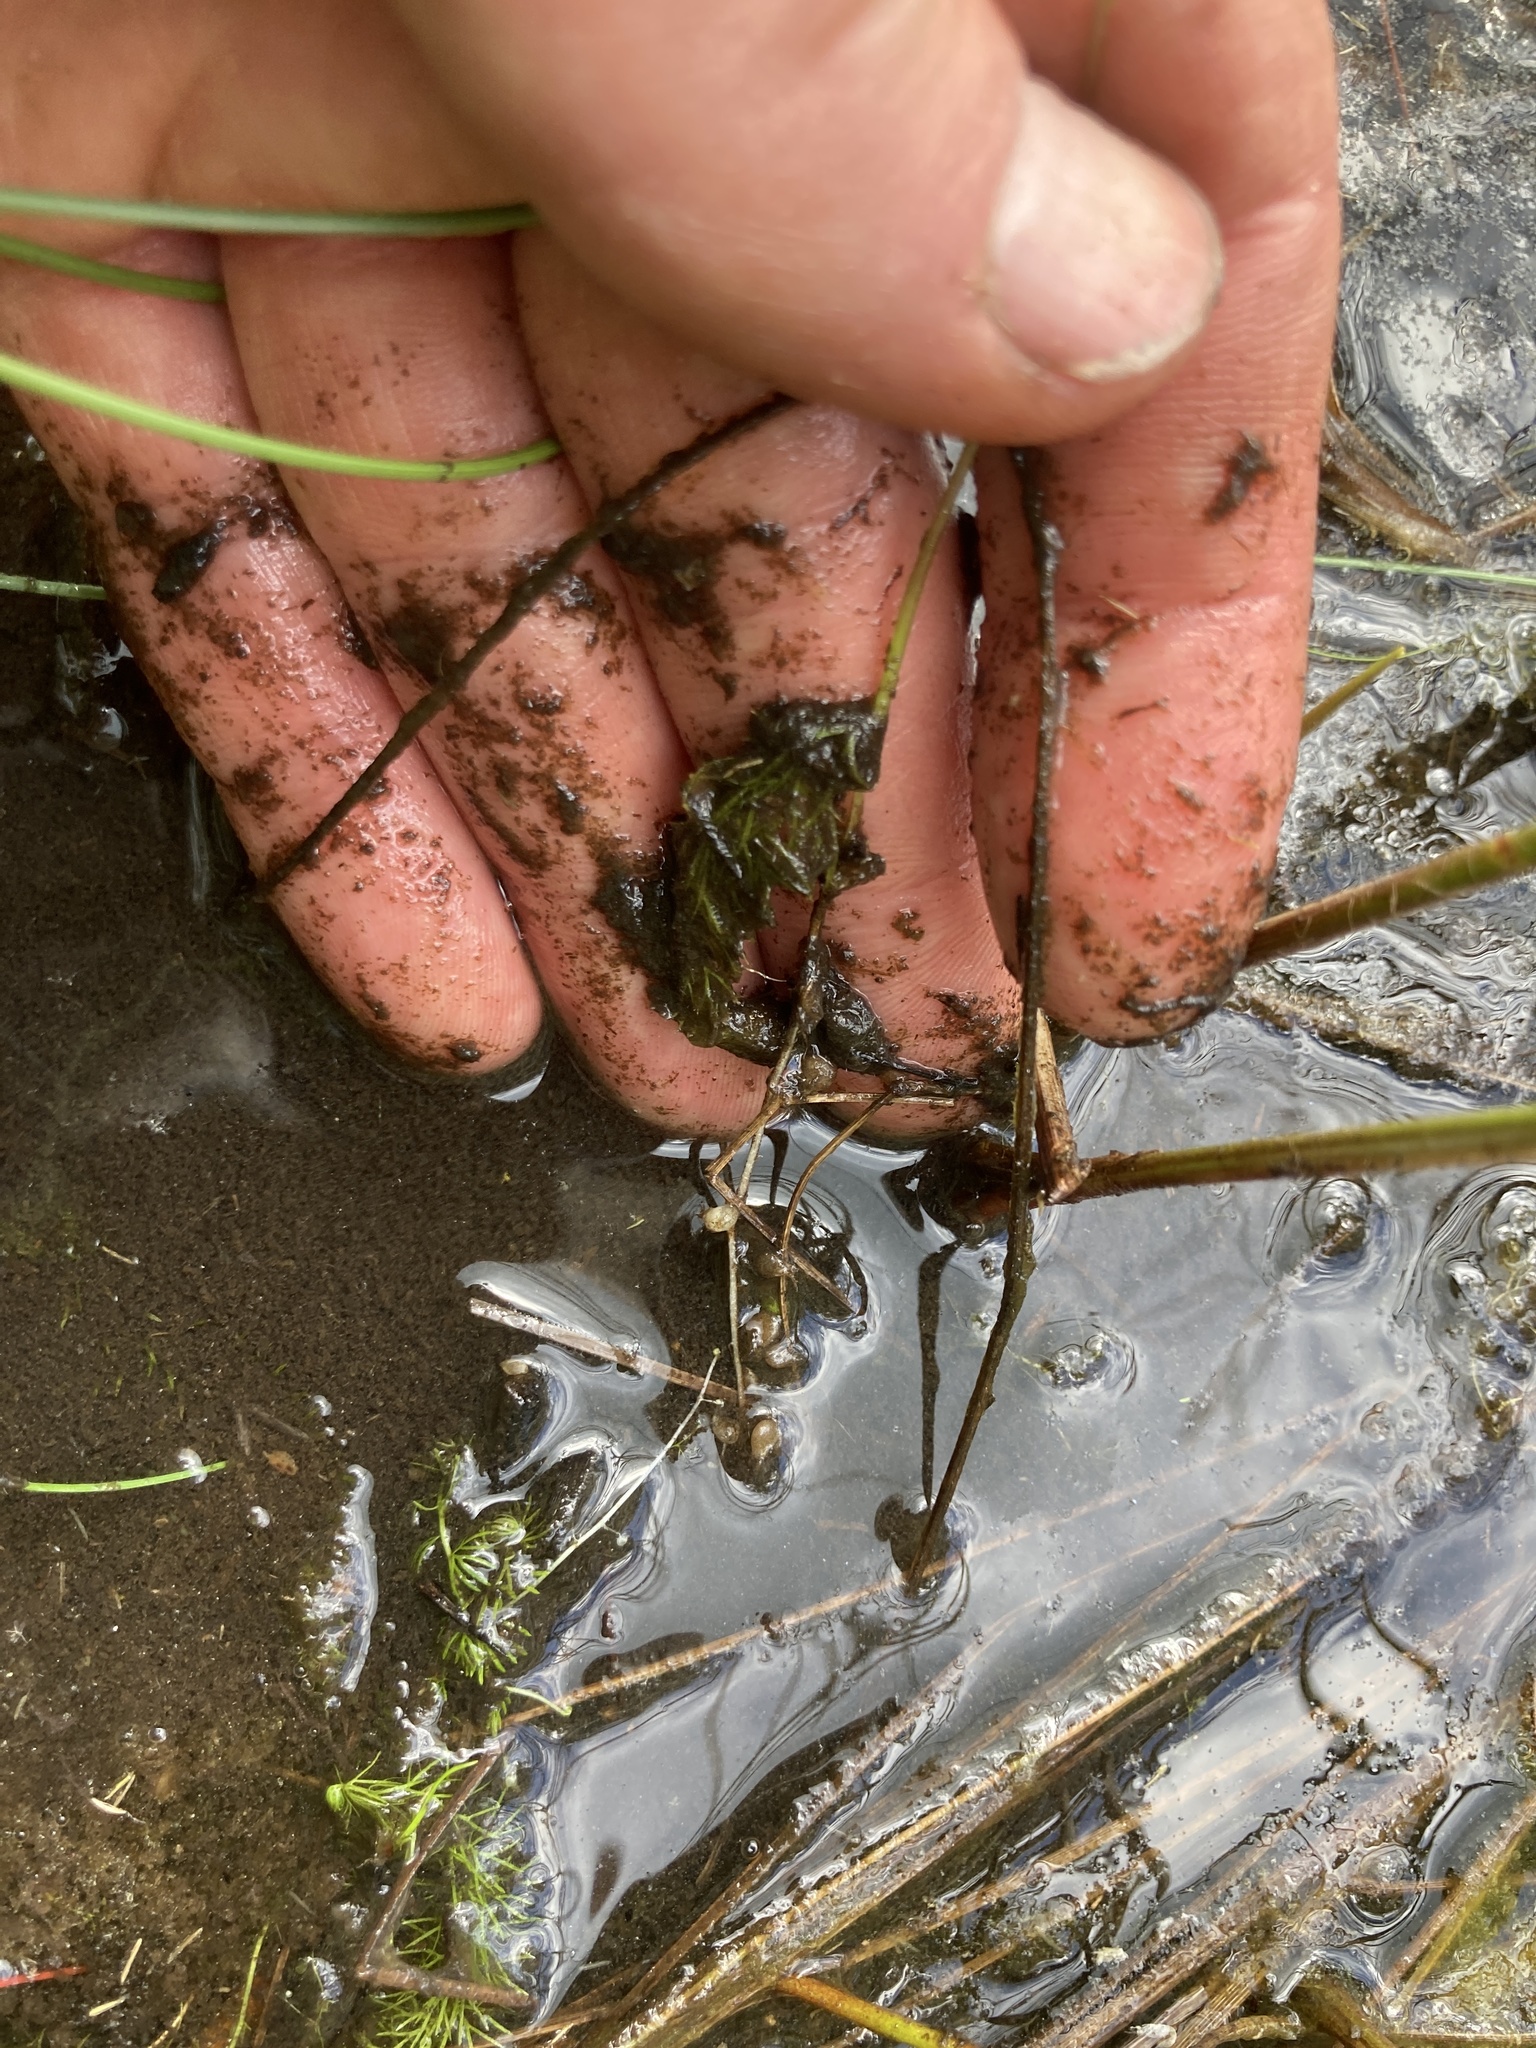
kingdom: Plantae
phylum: Tracheophyta
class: Magnoliopsida
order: Lamiales
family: Lentibulariaceae
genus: Utricularia
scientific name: Utricularia intermedia
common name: Intermediate bladderwort
